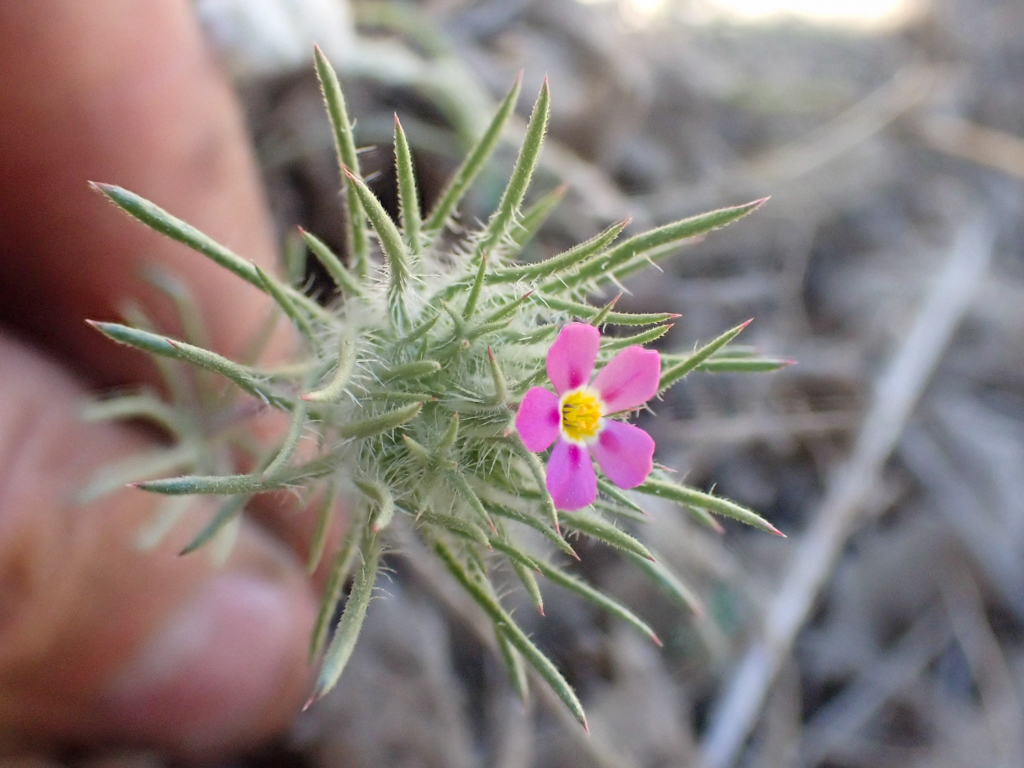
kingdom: Plantae
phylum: Tracheophyta
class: Magnoliopsida
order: Ericales
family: Polemoniaceae
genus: Leptosiphon
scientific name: Leptosiphon ciliatus
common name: Whiskerbrush
